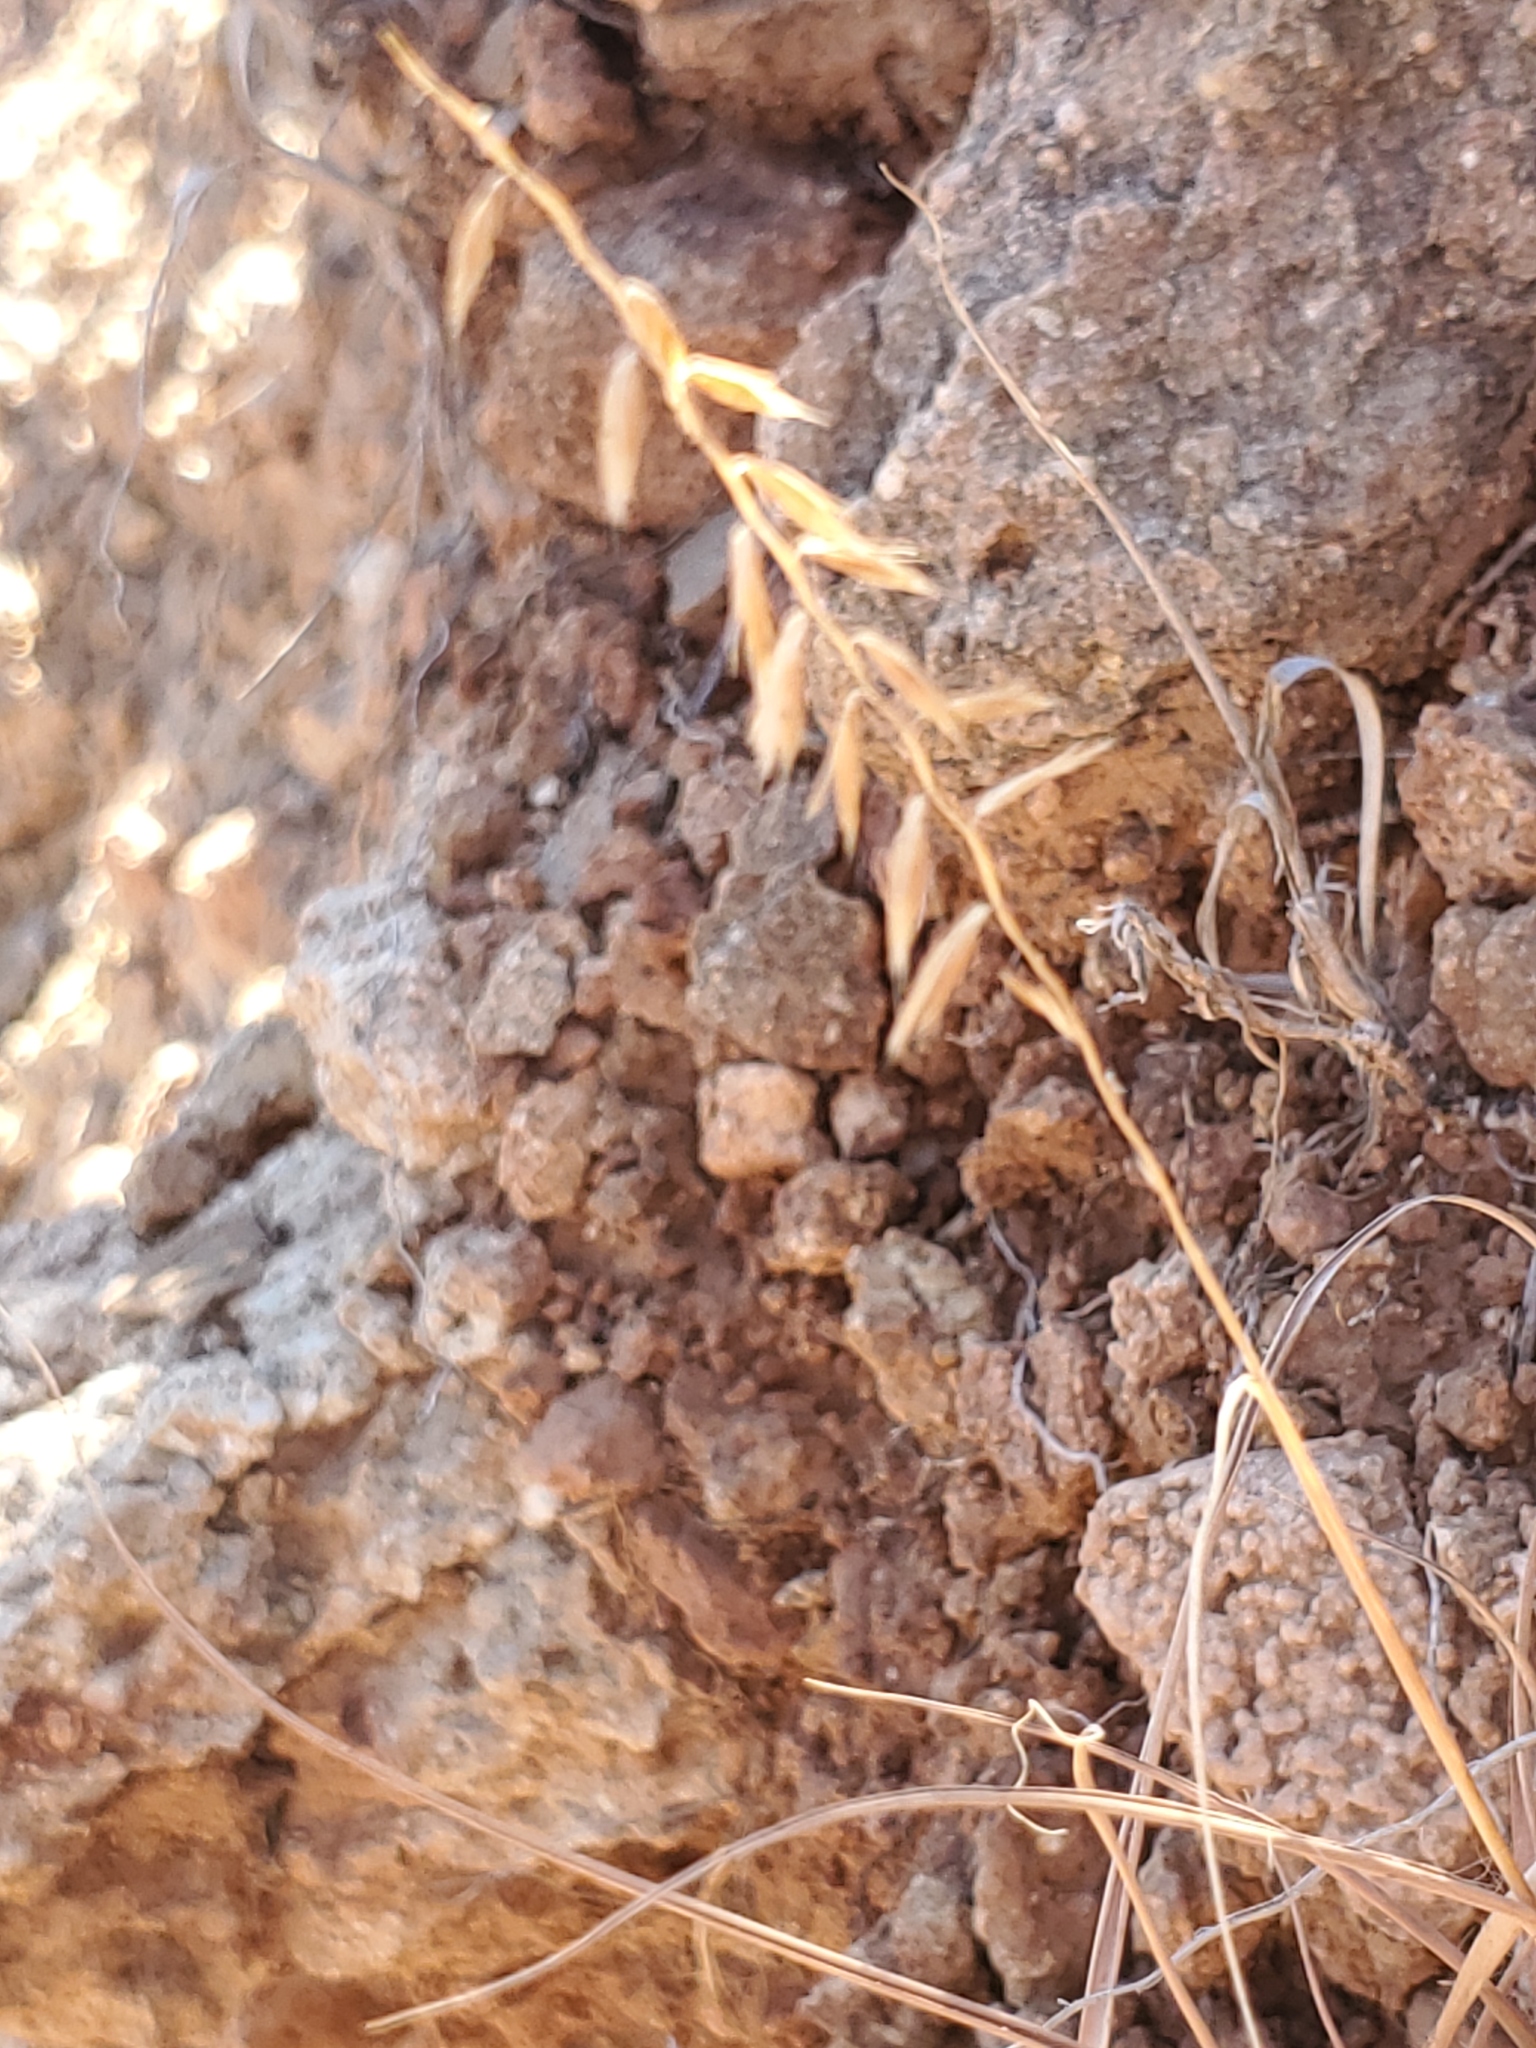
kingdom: Plantae
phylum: Tracheophyta
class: Liliopsida
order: Poales
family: Poaceae
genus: Bouteloua
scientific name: Bouteloua curtipendula
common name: Side-oats grama
